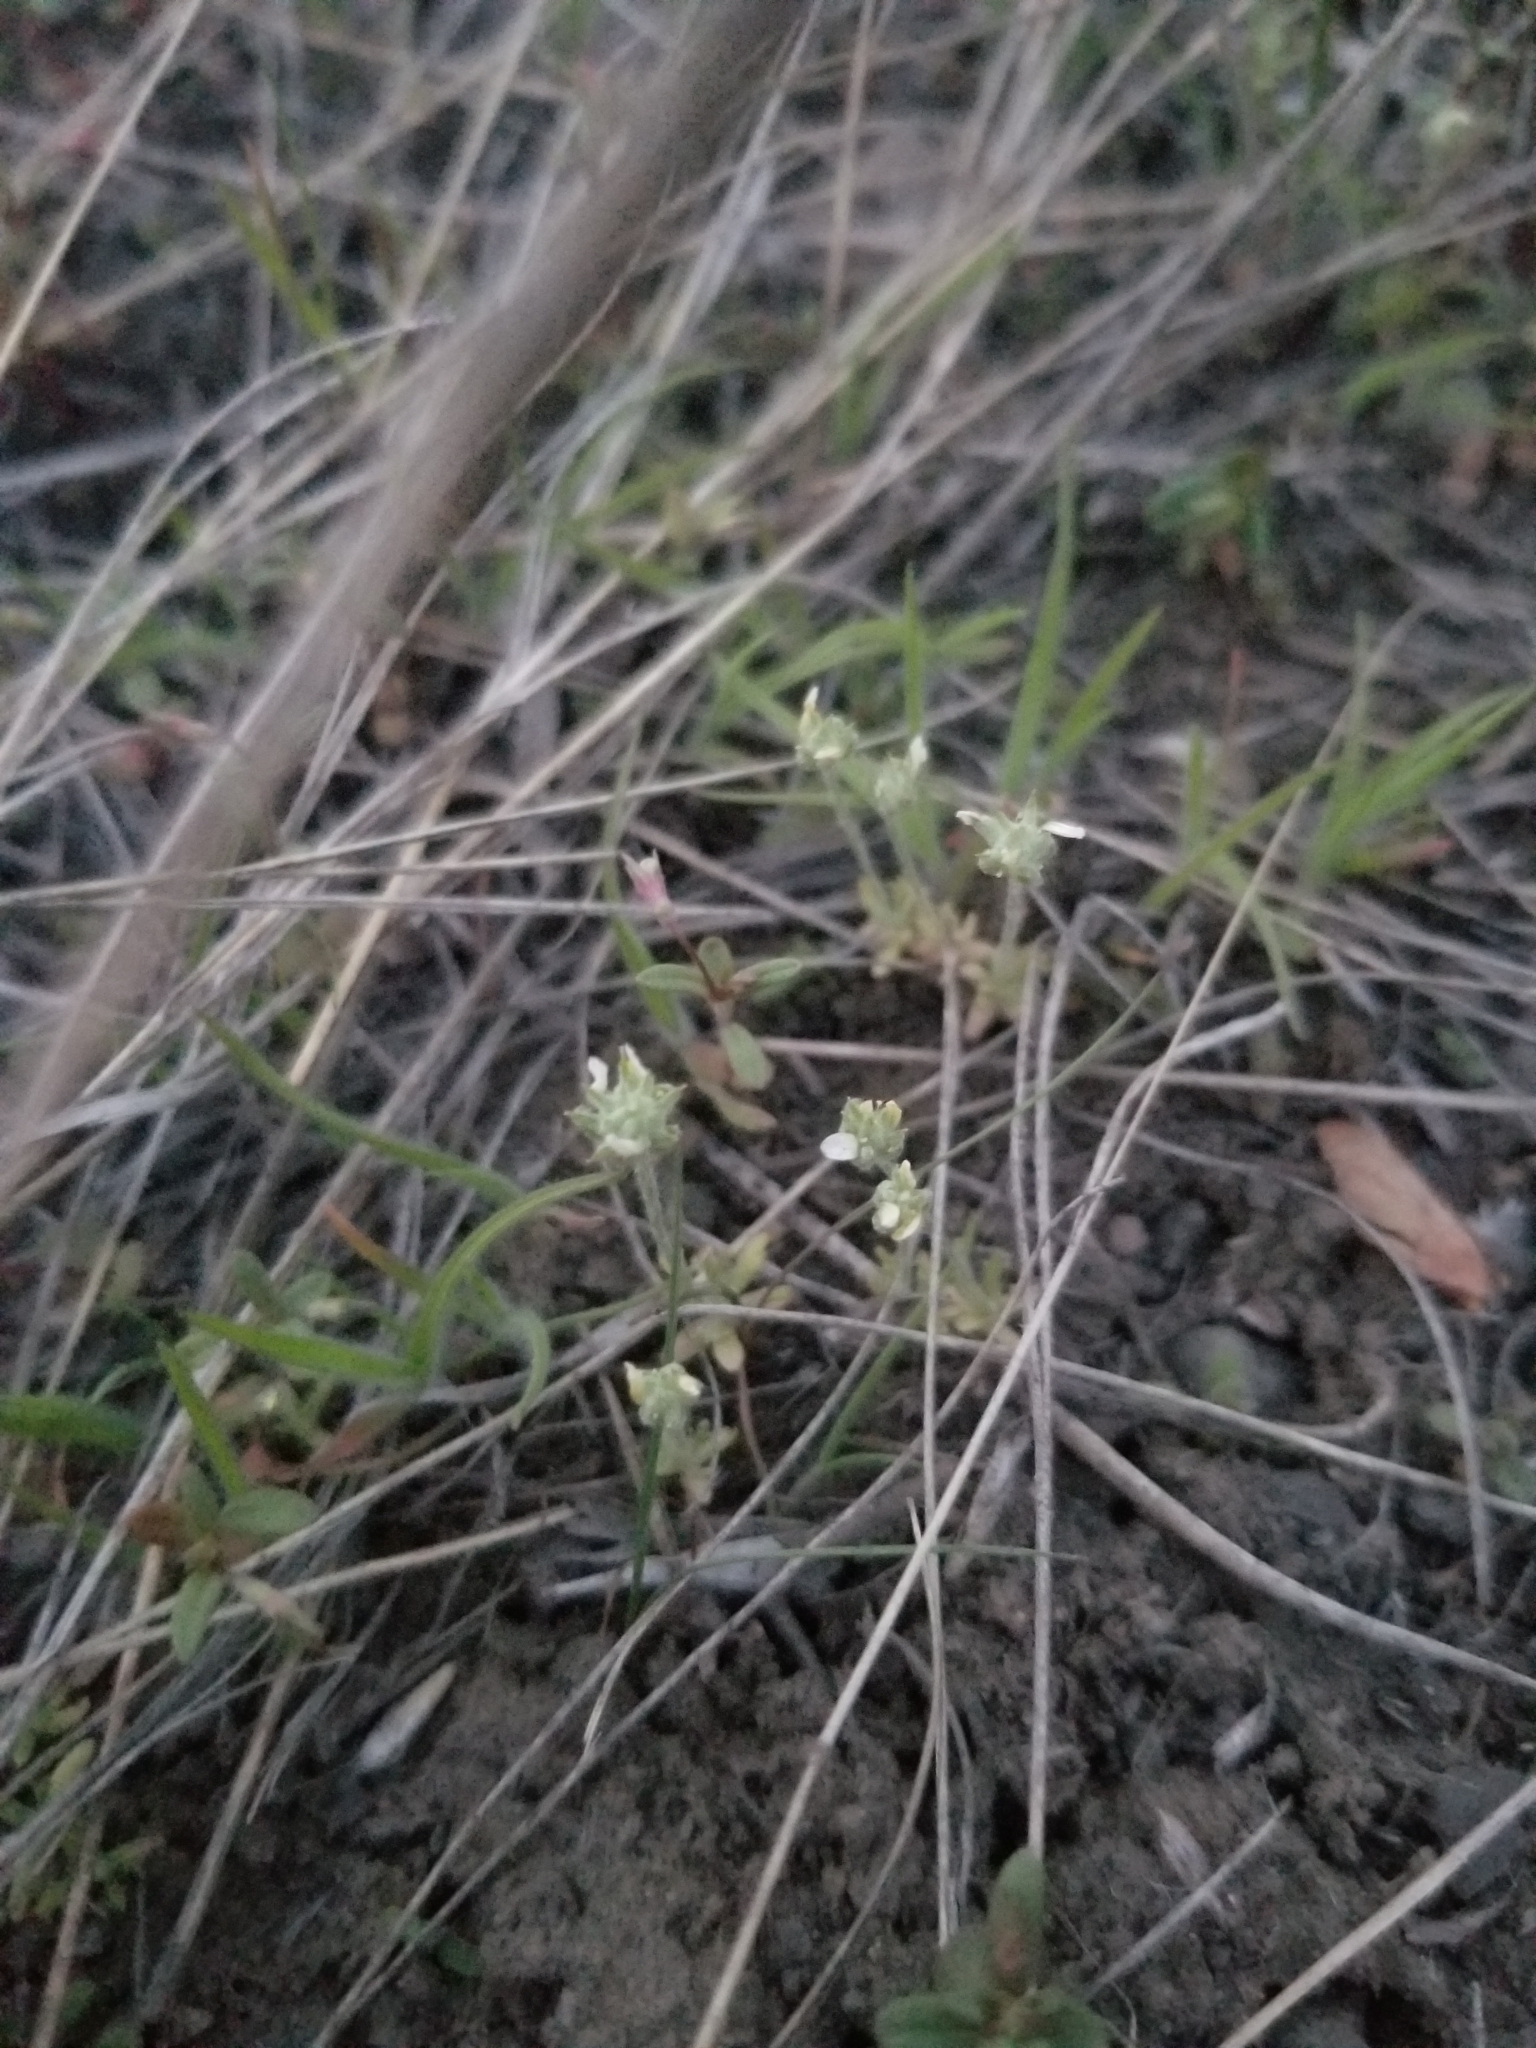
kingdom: Plantae
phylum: Tracheophyta
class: Magnoliopsida
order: Ranunculales
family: Ranunculaceae
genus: Ceratocephala
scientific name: Ceratocephala orthoceras
